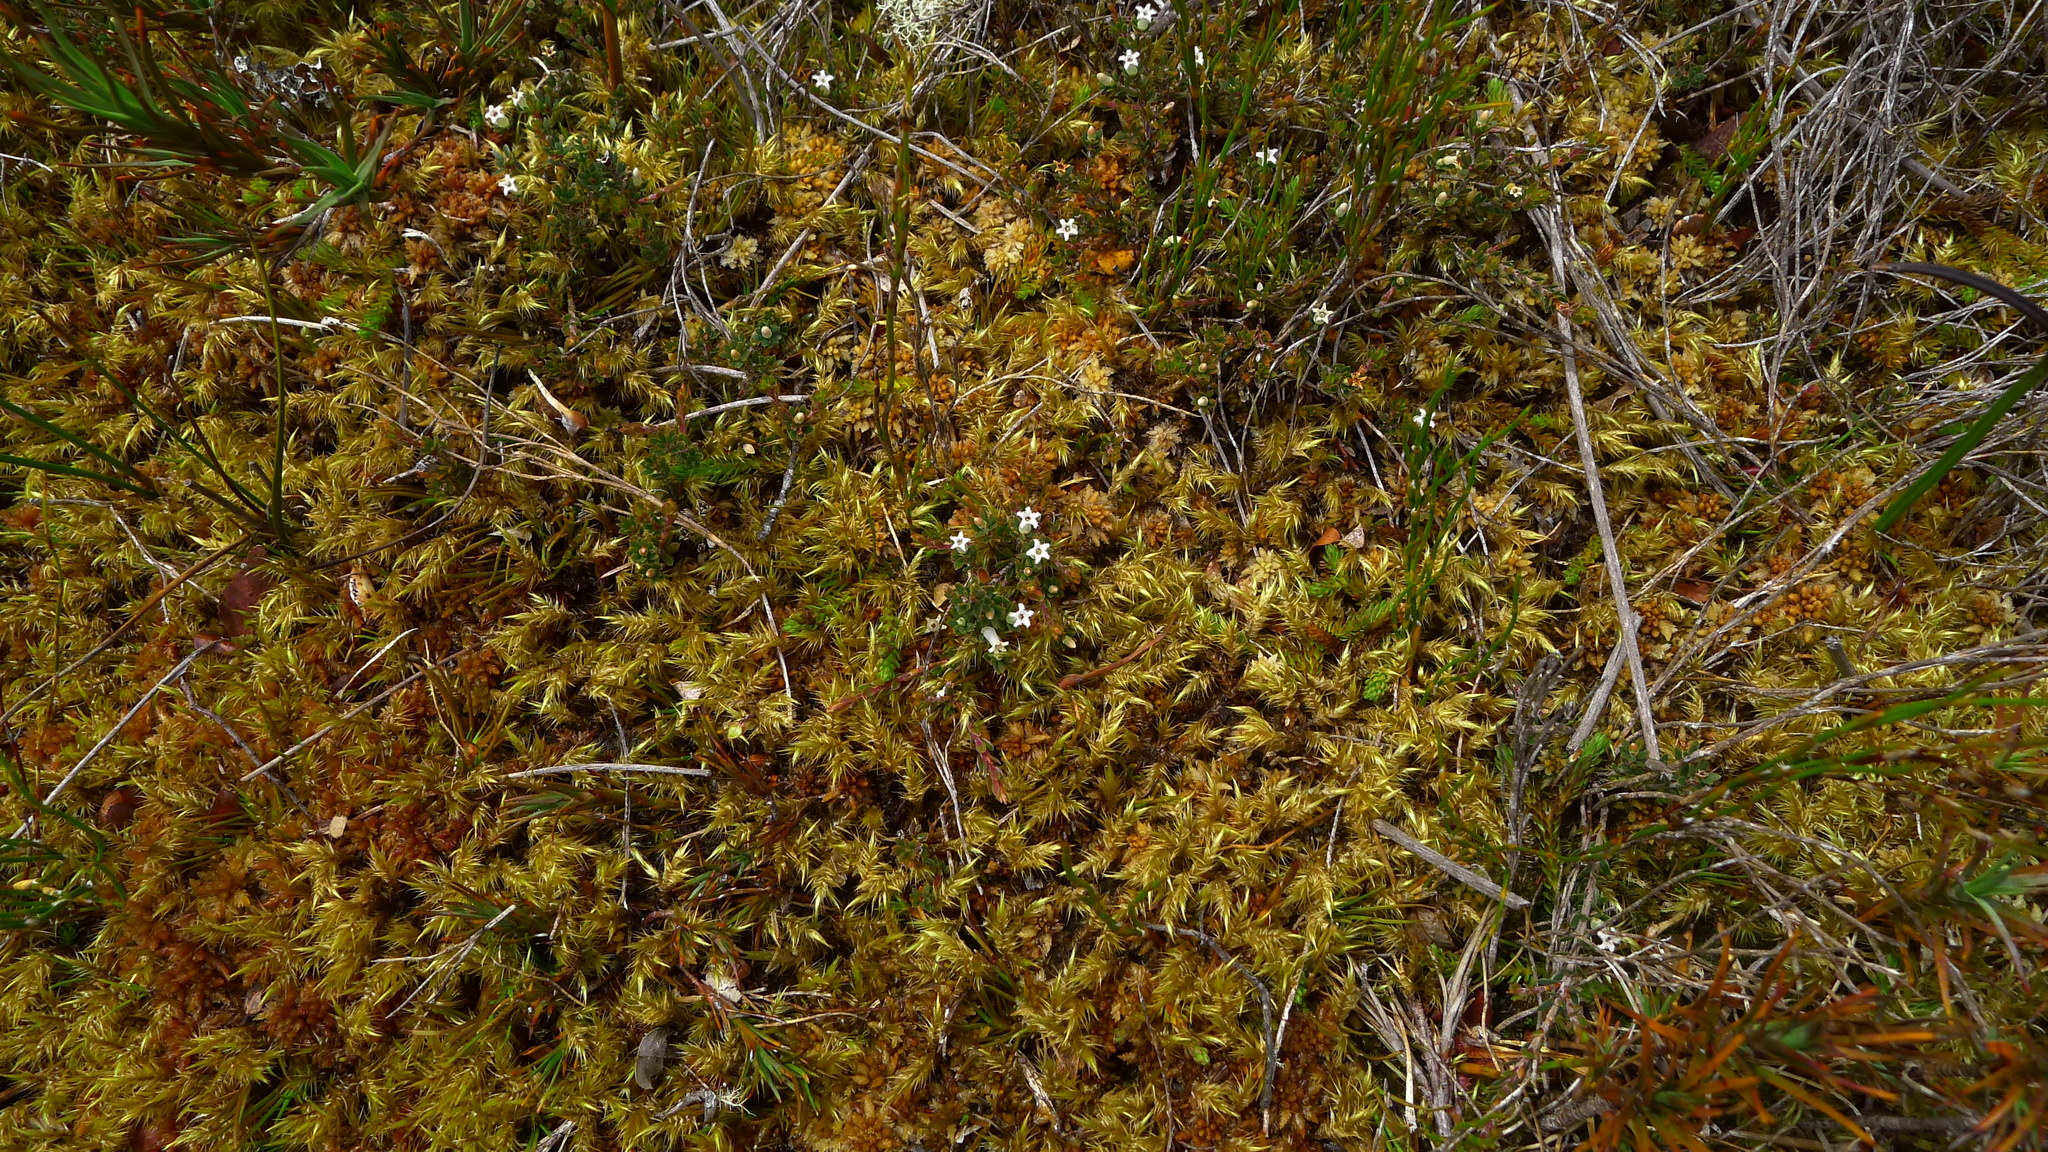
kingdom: Plantae
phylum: Tracheophyta
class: Magnoliopsida
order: Ericales
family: Ericaceae
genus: Styphelia
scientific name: Styphelia nesophila
